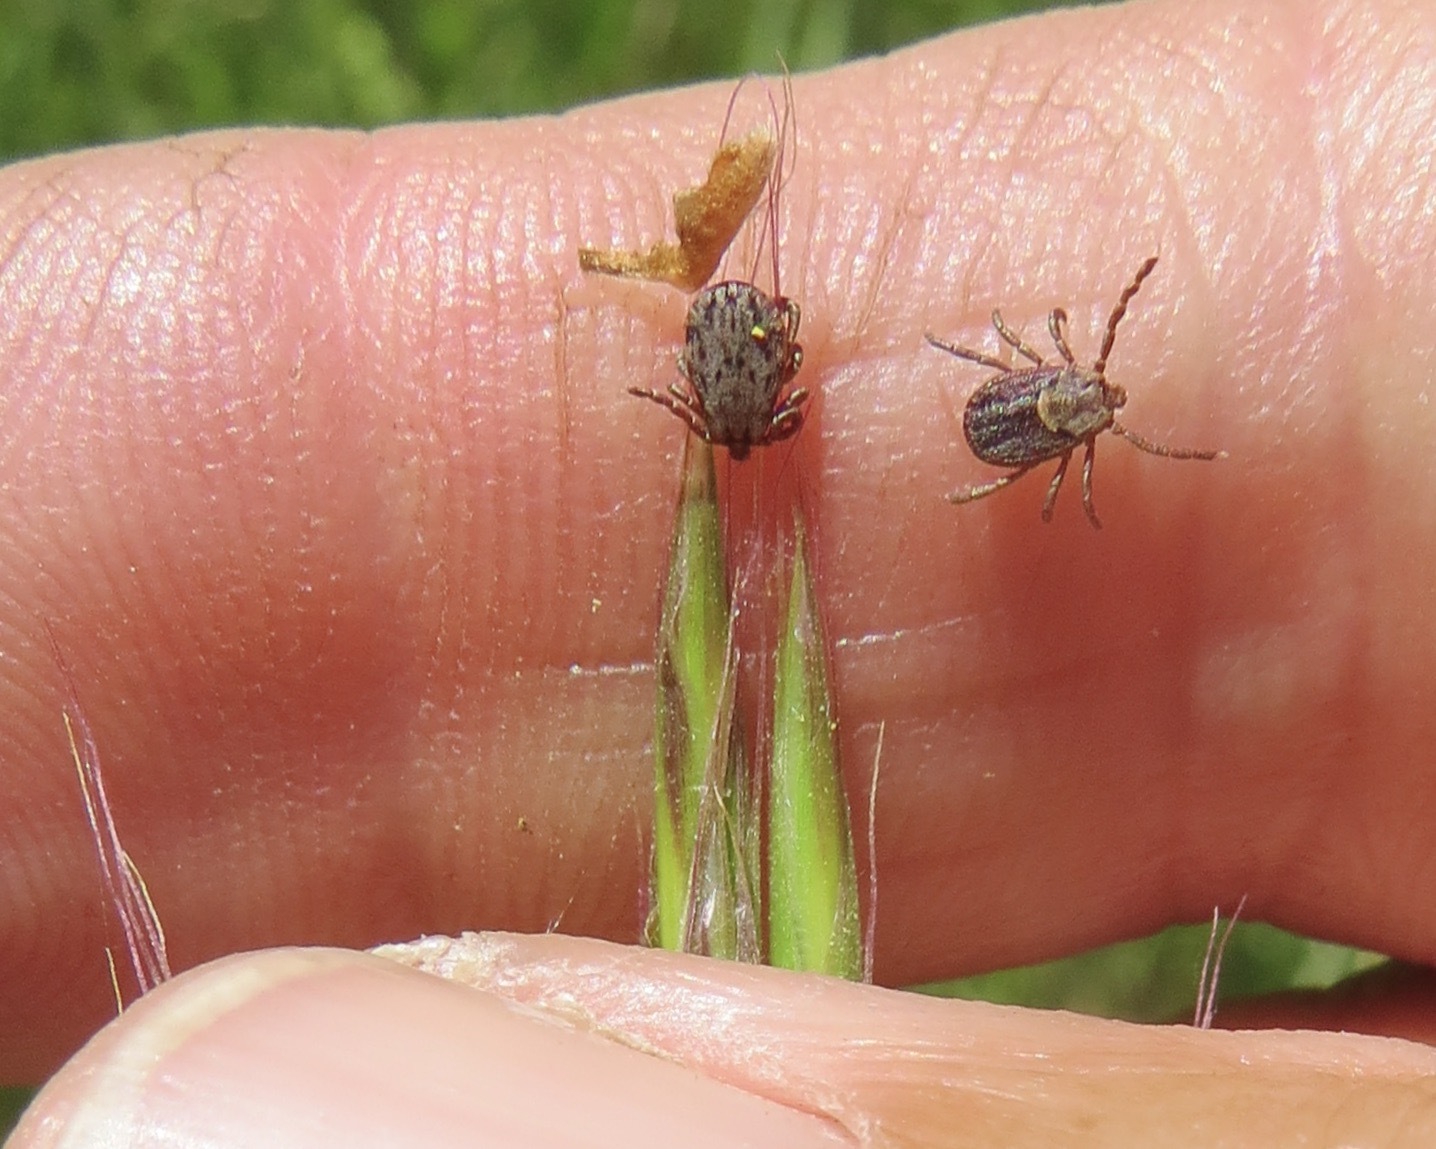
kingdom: Animalia
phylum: Arthropoda
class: Arachnida
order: Ixodida
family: Ixodidae
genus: Dermacentor
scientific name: Dermacentor occidentalis
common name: Net tick
